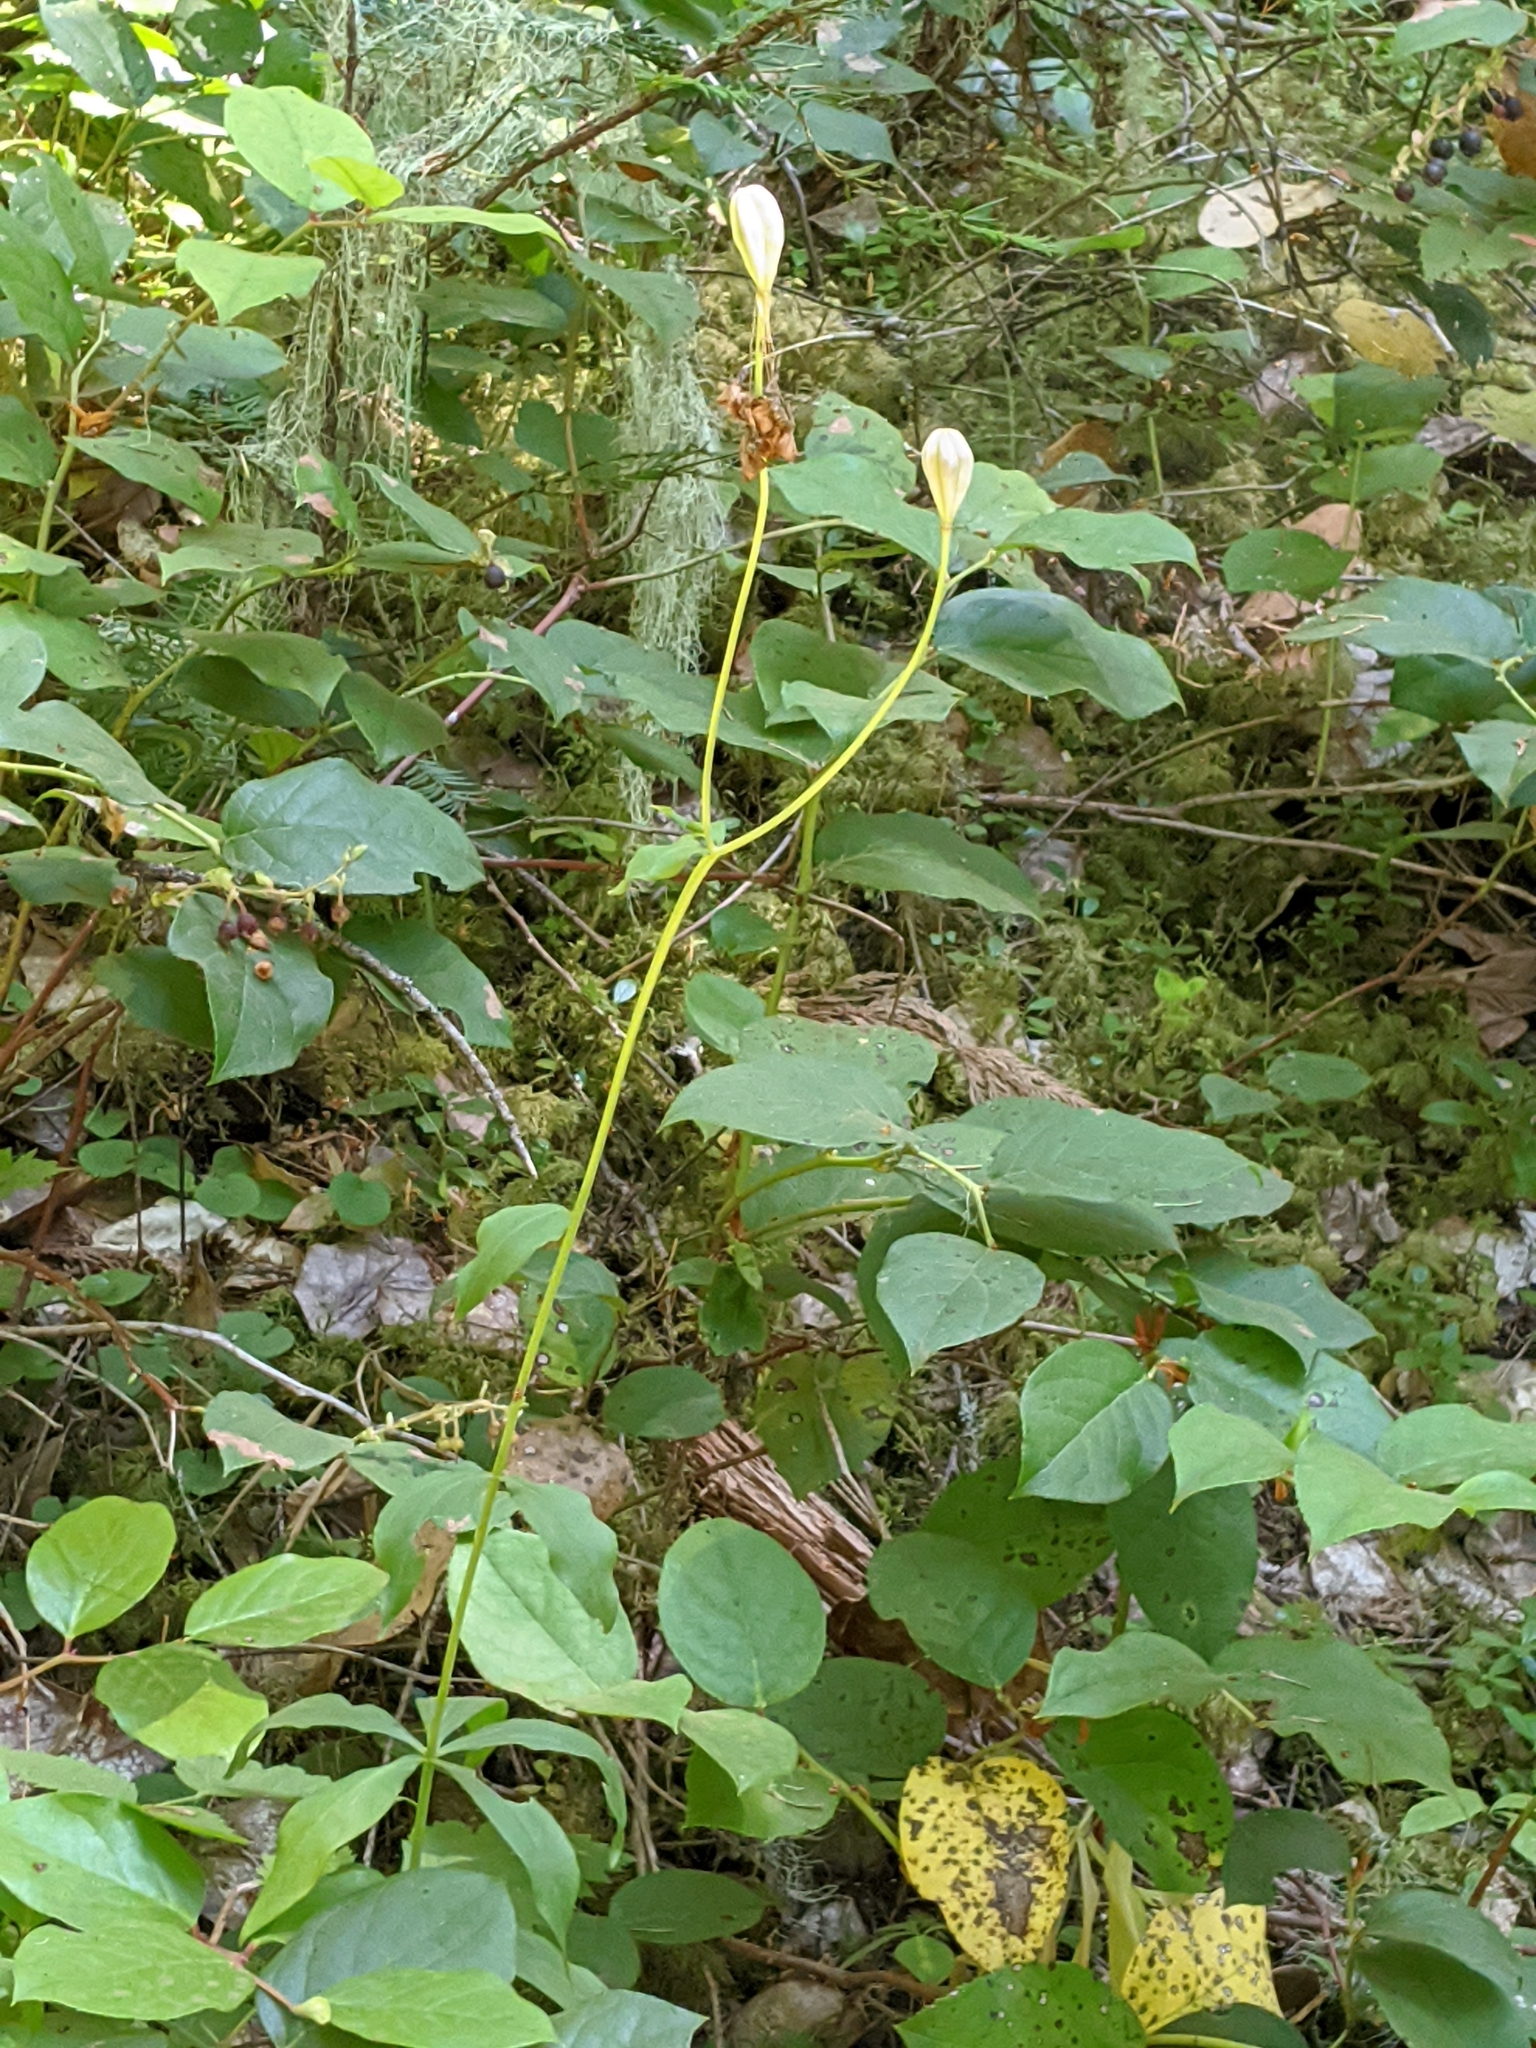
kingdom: Plantae
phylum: Tracheophyta
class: Liliopsida
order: Liliales
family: Liliaceae
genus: Lilium
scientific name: Lilium columbianum
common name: Columbia lily
